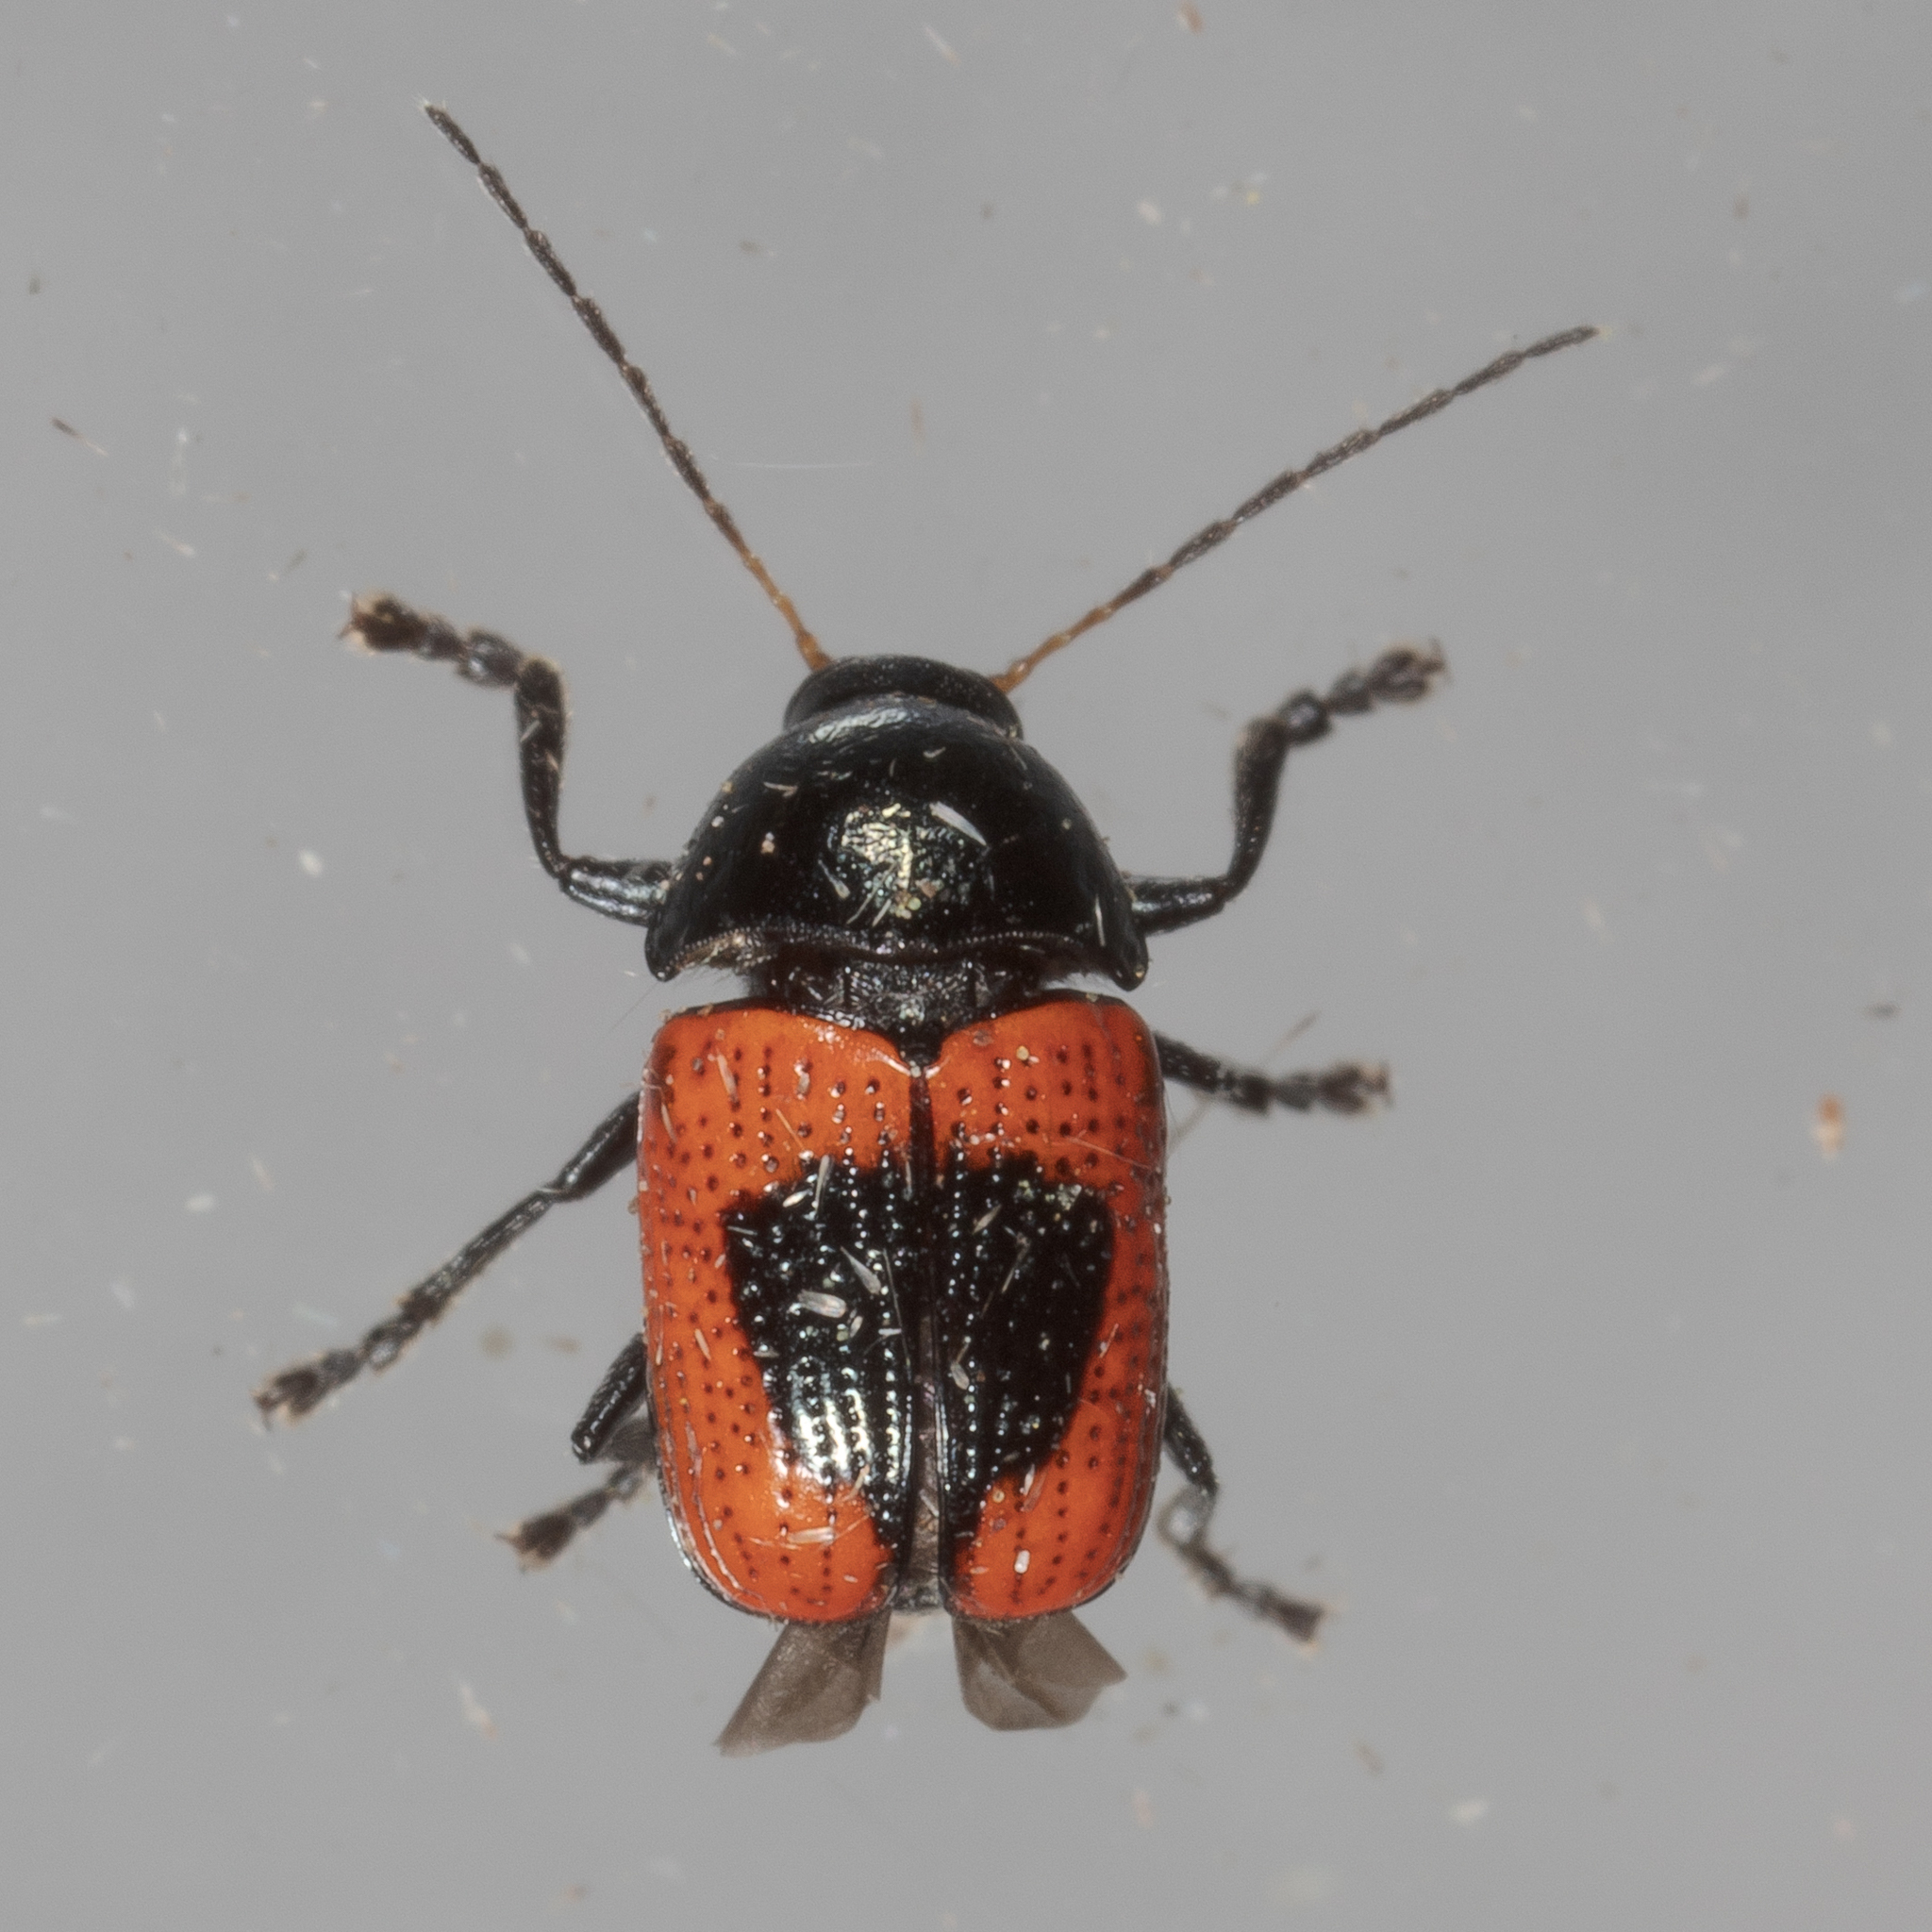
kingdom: Animalia
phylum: Arthropoda
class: Insecta
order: Coleoptera
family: Chrysomelidae
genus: Cryptocephalus
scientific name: Cryptocephalus notatus
